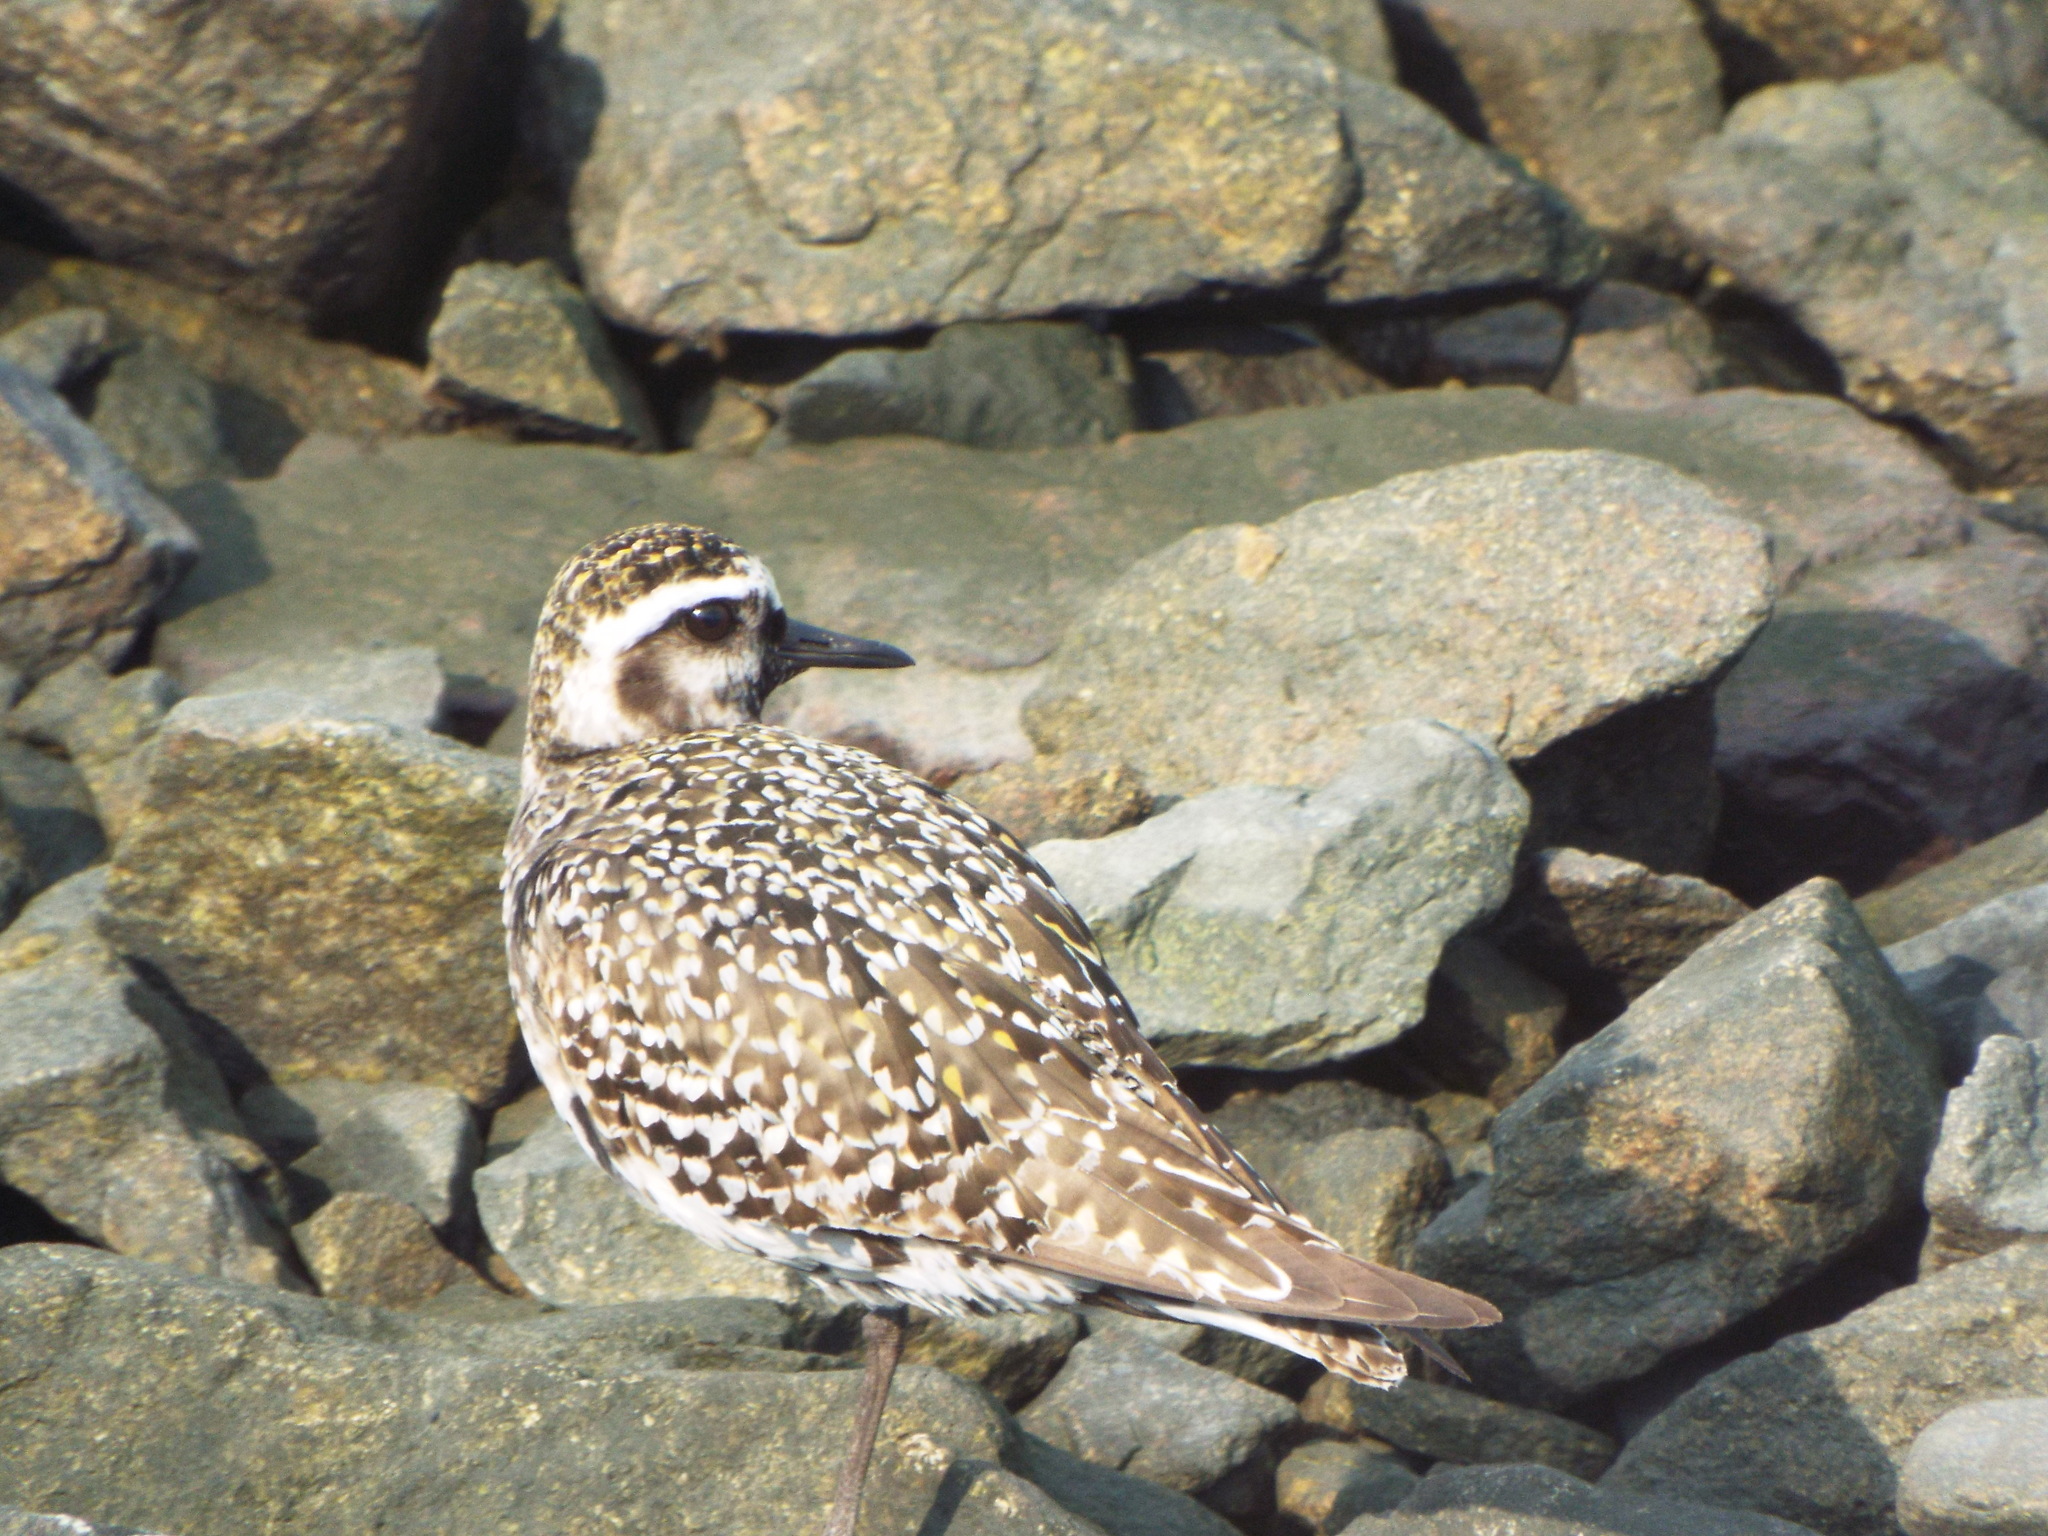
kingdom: Animalia
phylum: Chordata
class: Aves
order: Charadriiformes
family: Charadriidae
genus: Pluvialis
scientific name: Pluvialis dominica
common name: American golden plover
